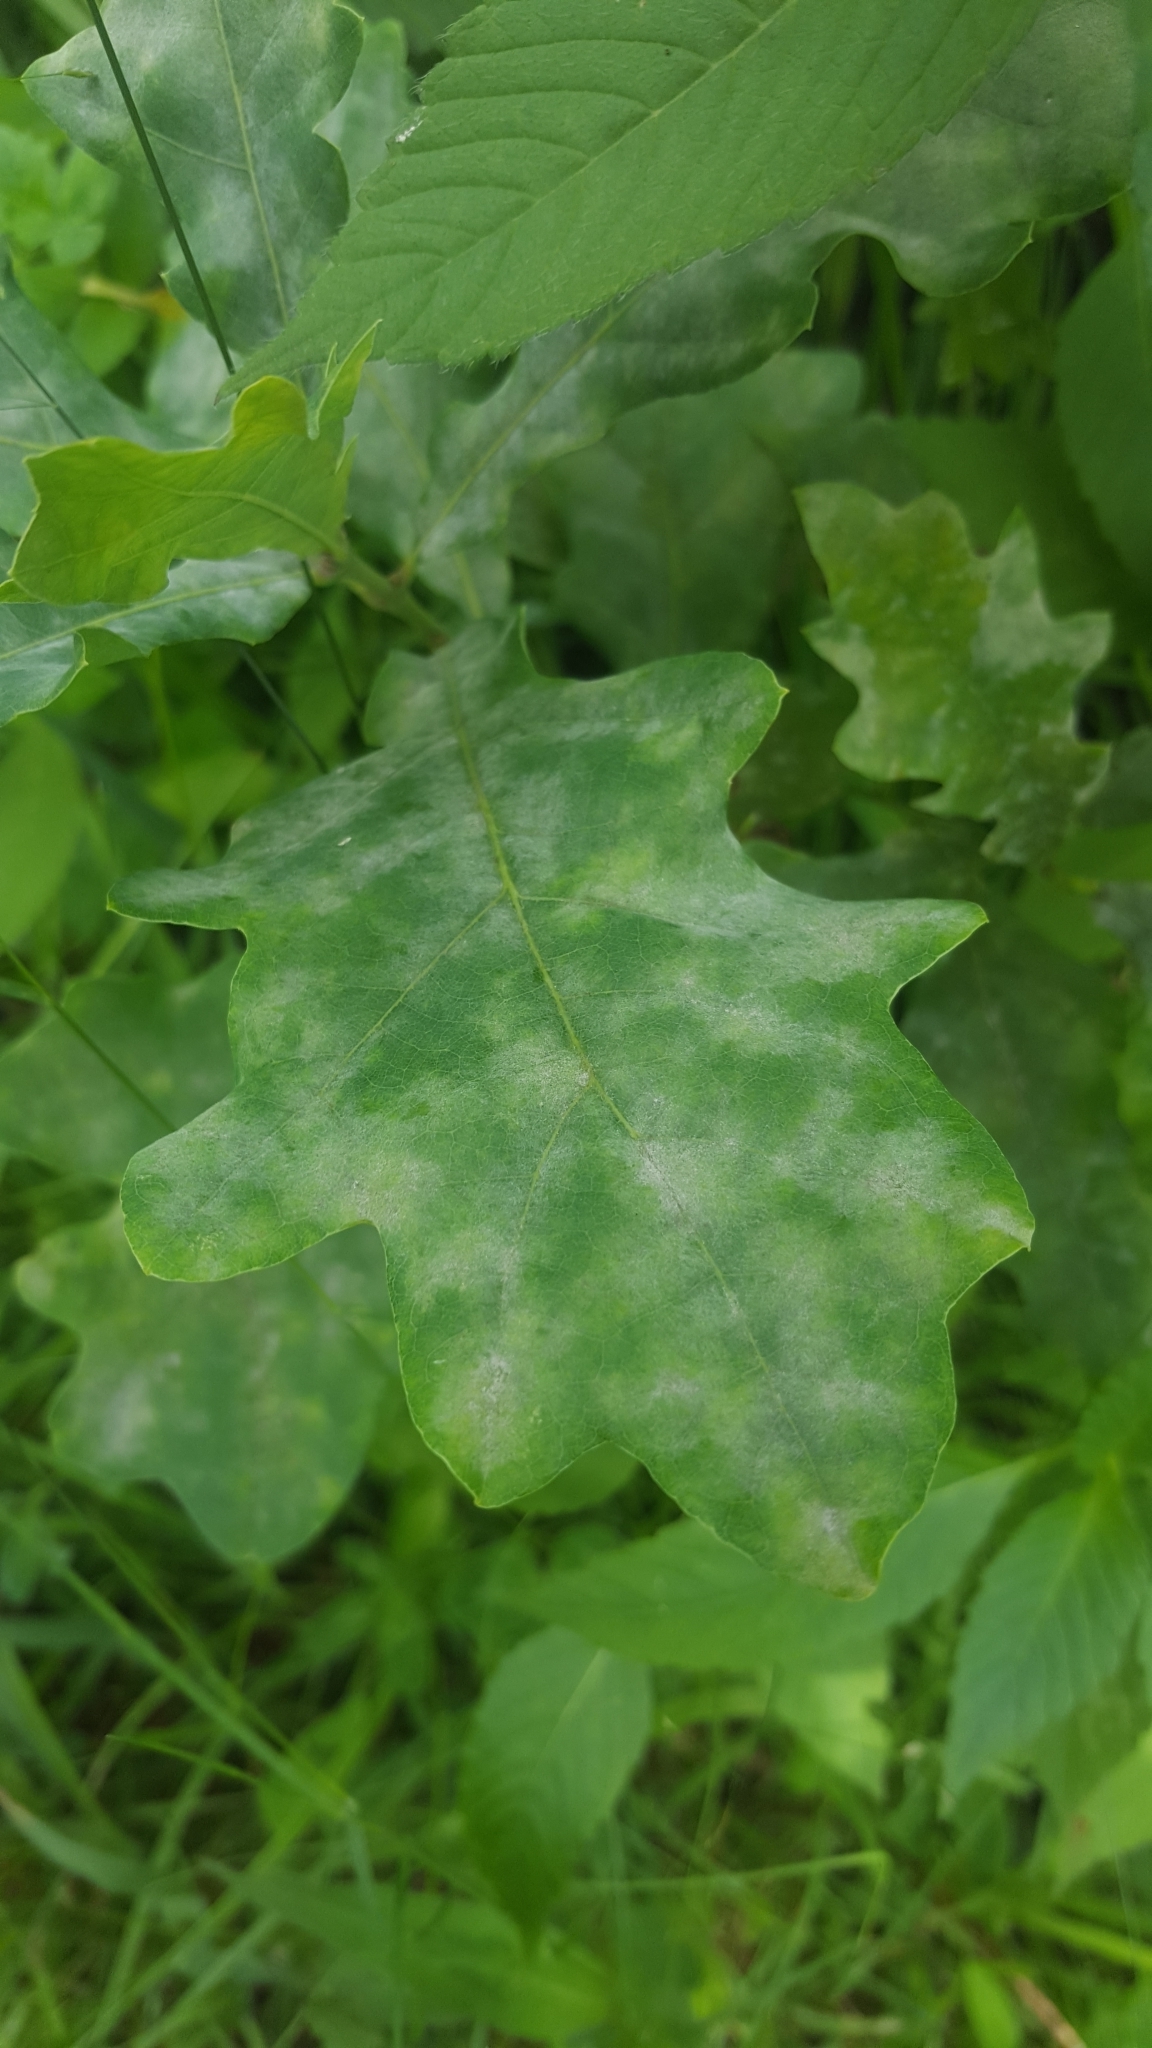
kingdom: Fungi
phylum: Ascomycota
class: Leotiomycetes
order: Helotiales
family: Erysiphaceae
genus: Erysiphe
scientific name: Erysiphe
